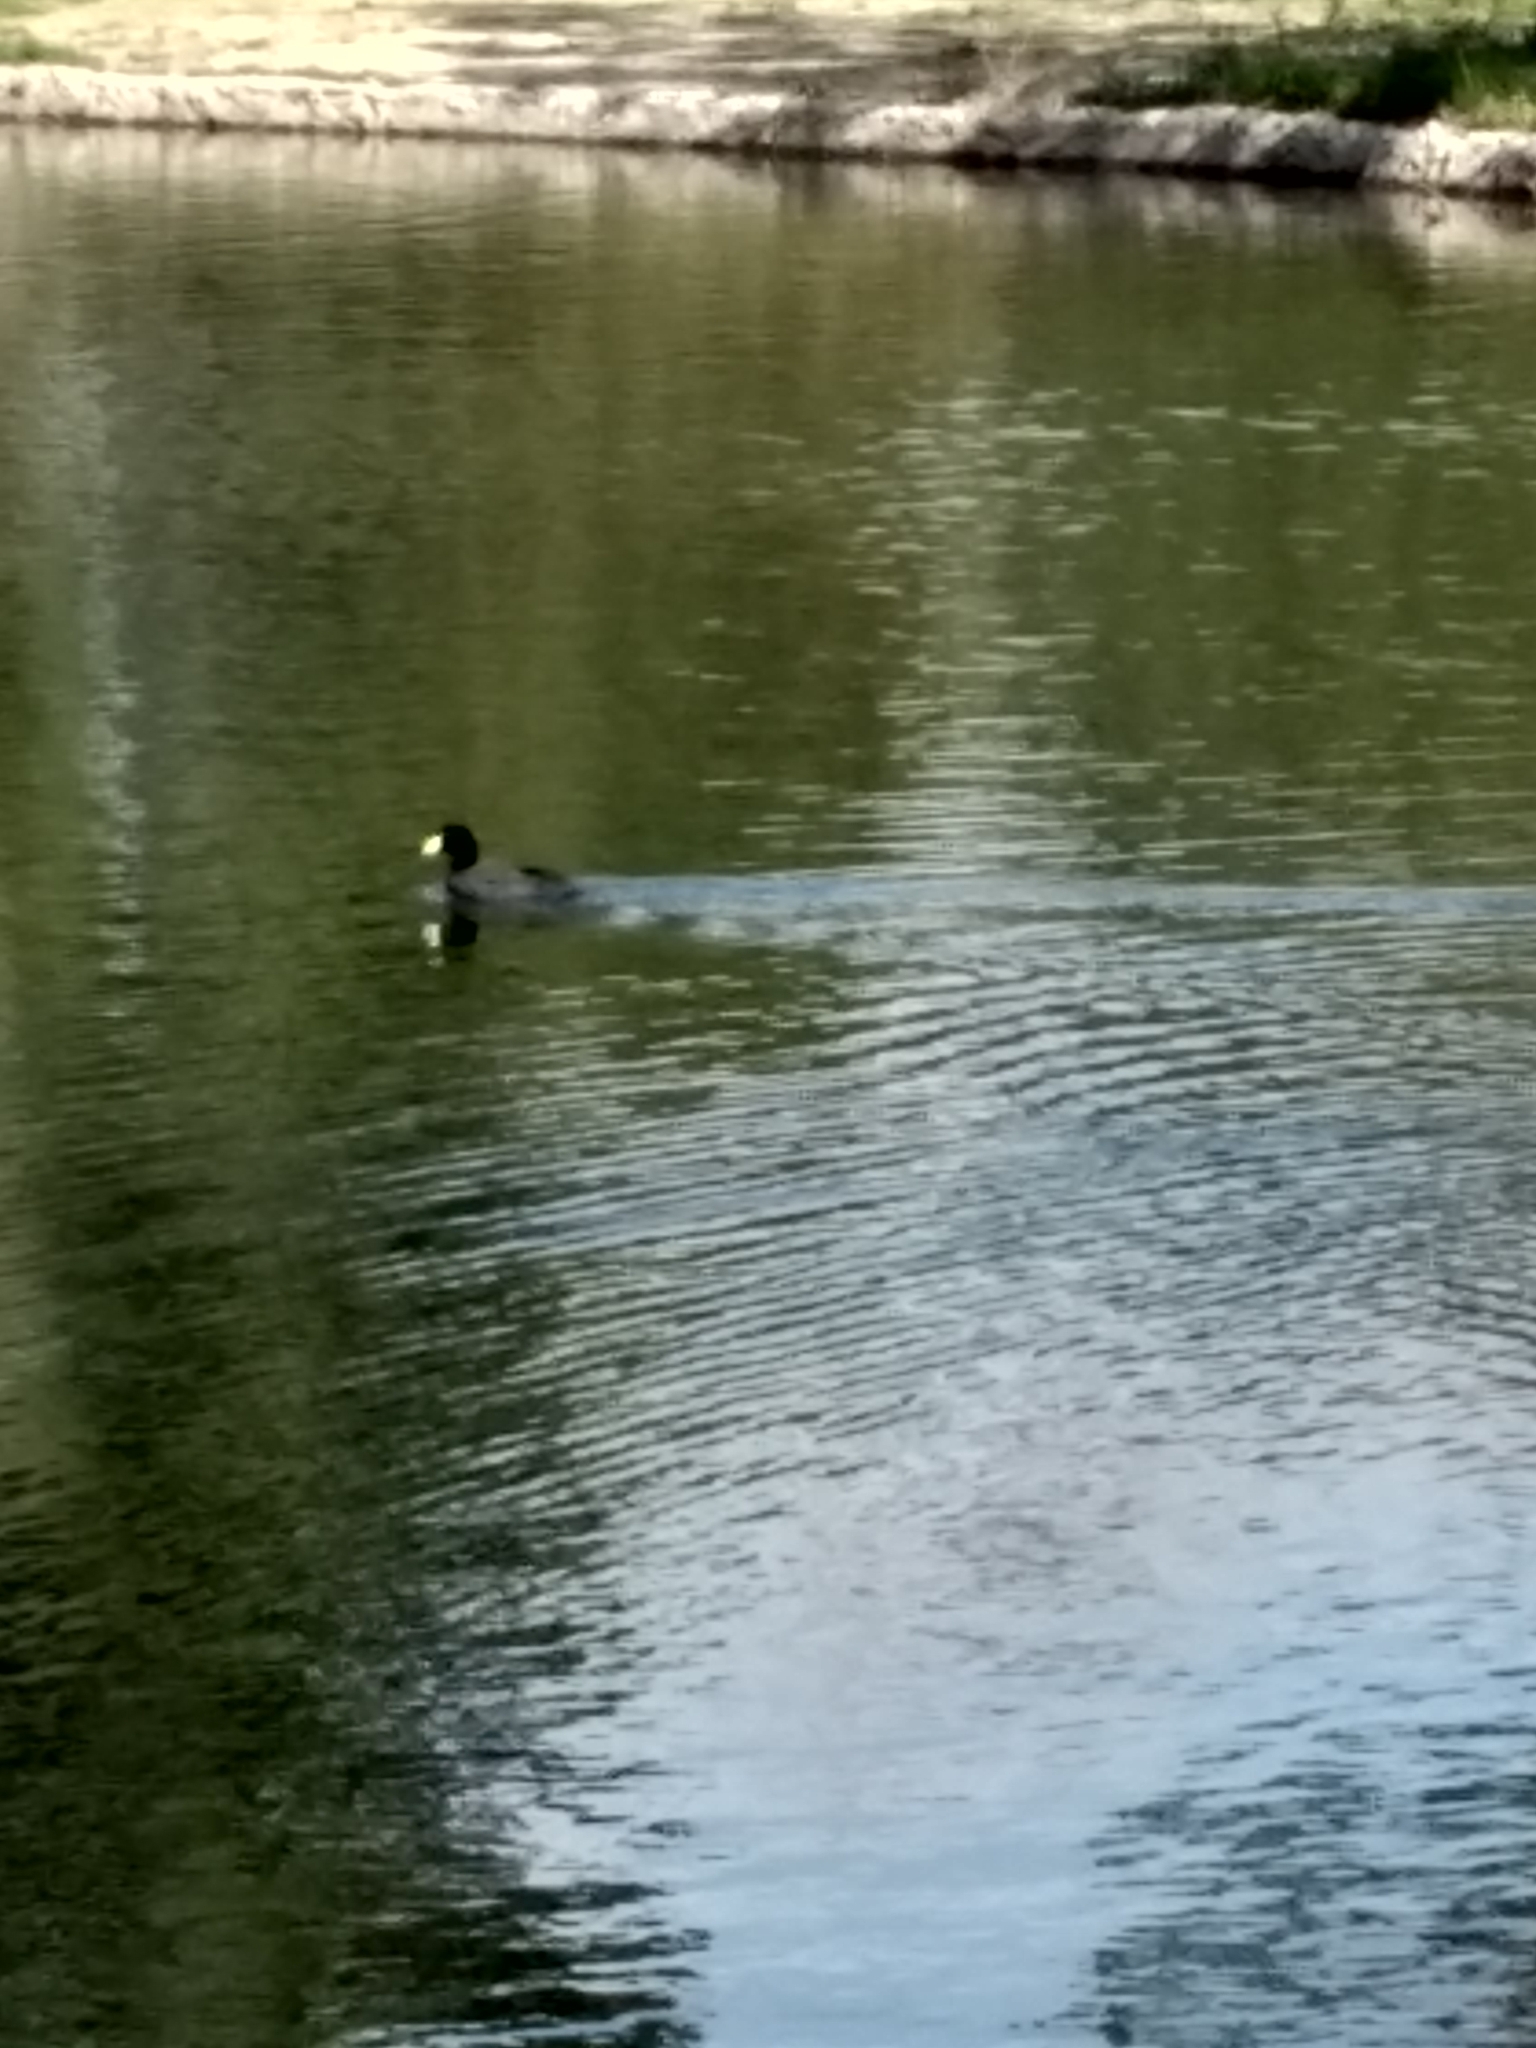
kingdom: Animalia
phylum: Chordata
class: Aves
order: Gruiformes
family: Rallidae
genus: Fulica
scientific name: Fulica americana
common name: American coot
